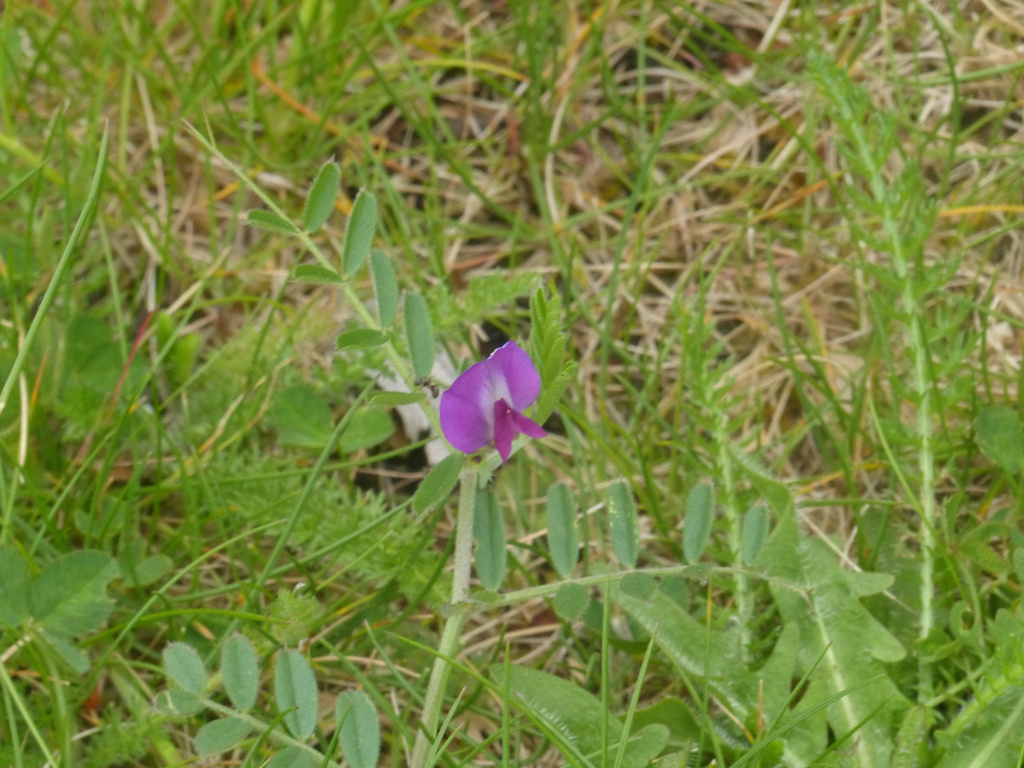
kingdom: Plantae
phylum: Tracheophyta
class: Magnoliopsida
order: Fabales
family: Fabaceae
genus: Vicia
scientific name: Vicia sativa
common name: Garden vetch
